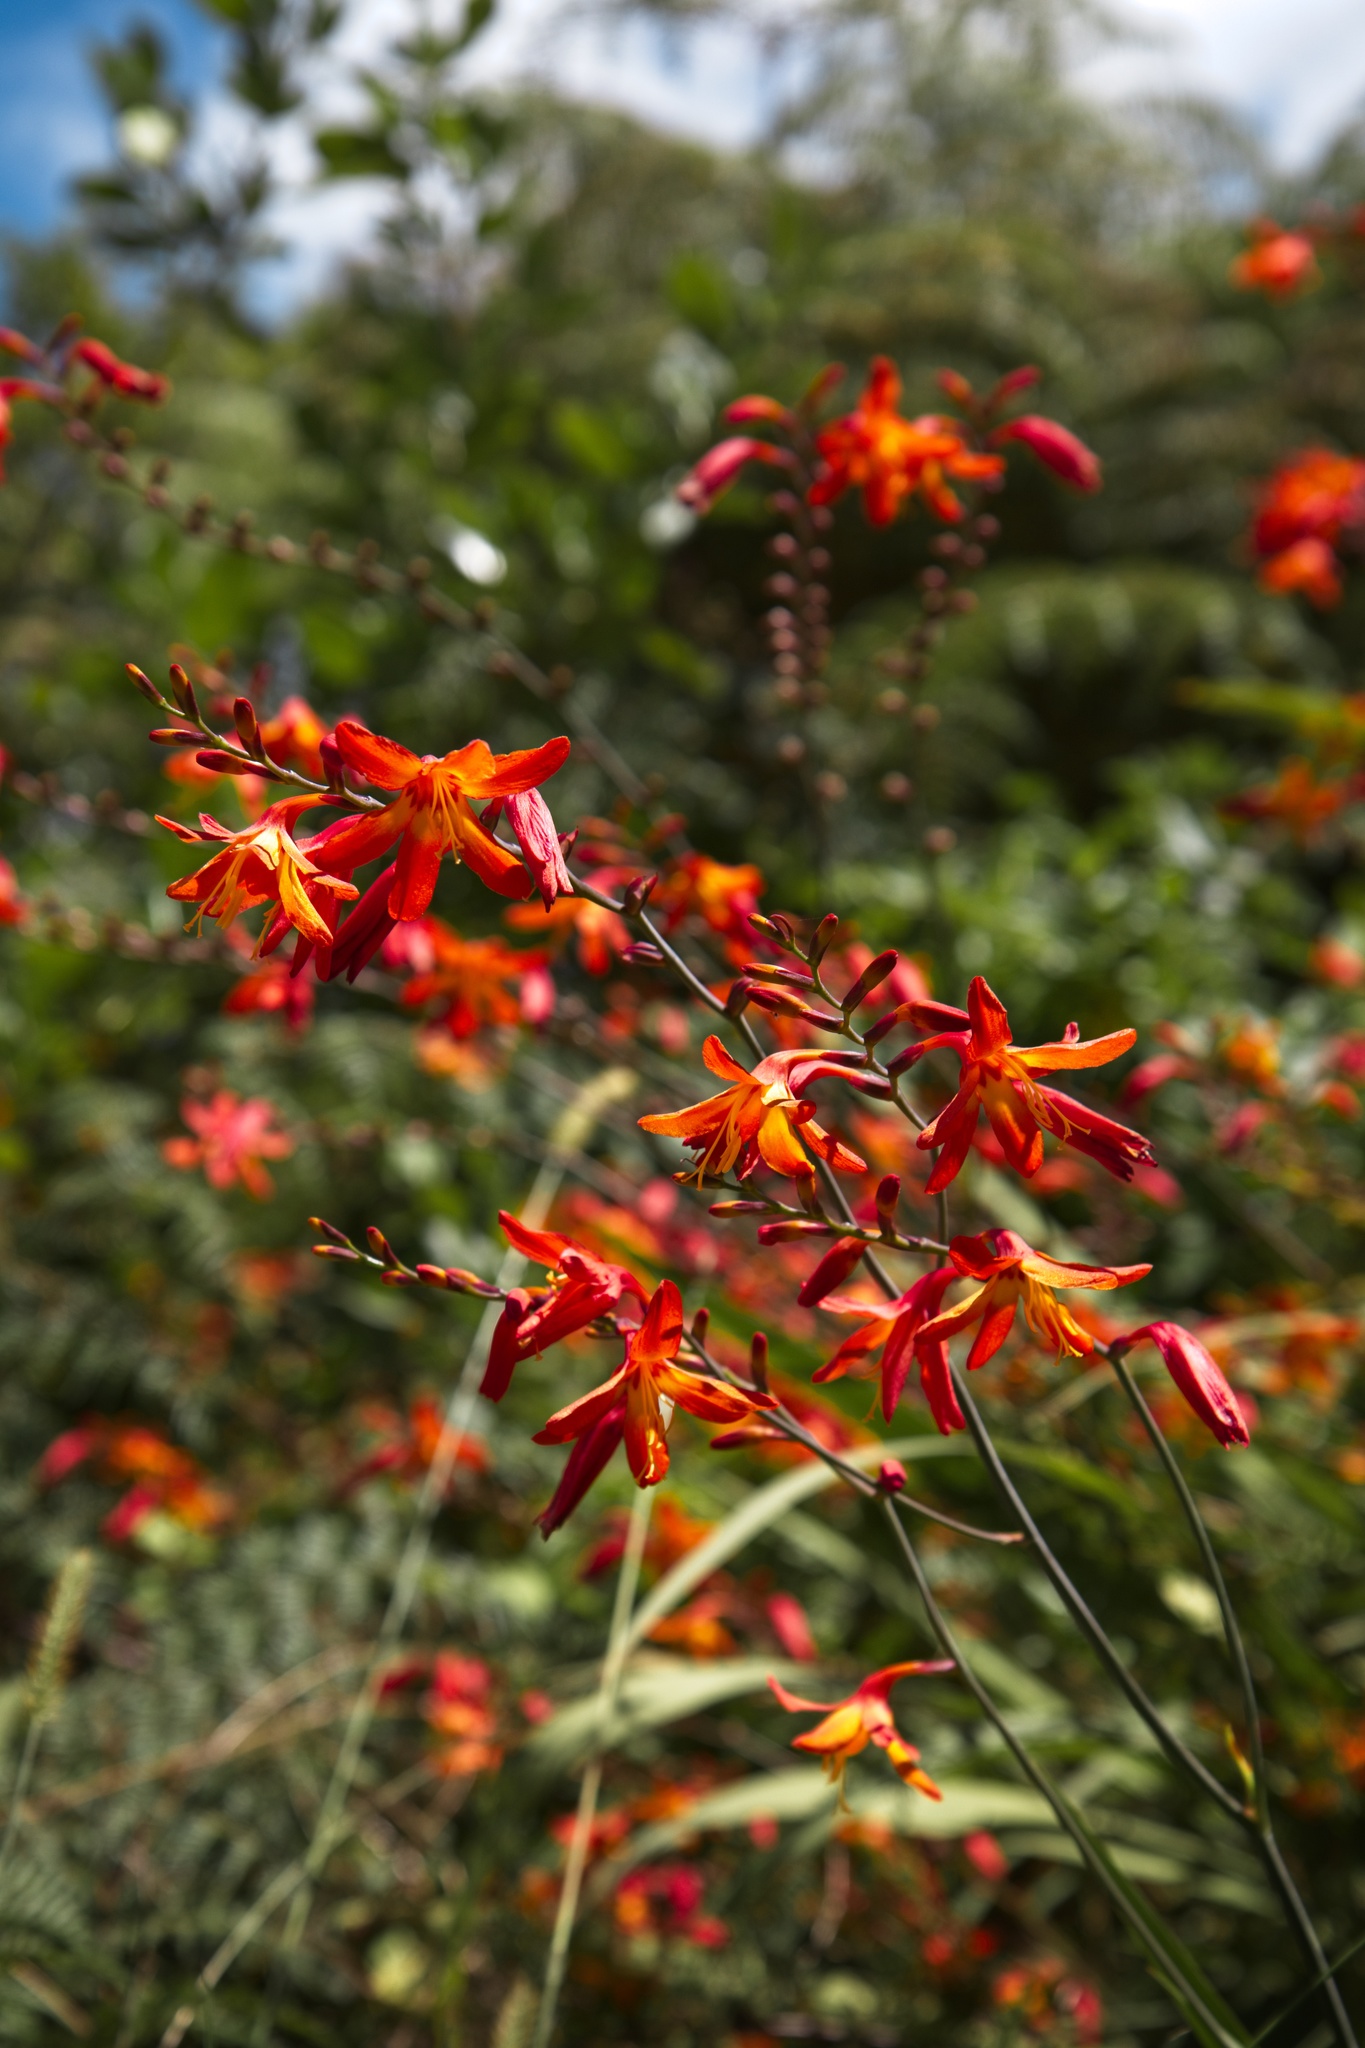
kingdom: Plantae
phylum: Tracheophyta
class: Liliopsida
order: Asparagales
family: Iridaceae
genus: Crocosmia
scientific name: Crocosmia crocosmiiflora
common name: Montbretia
